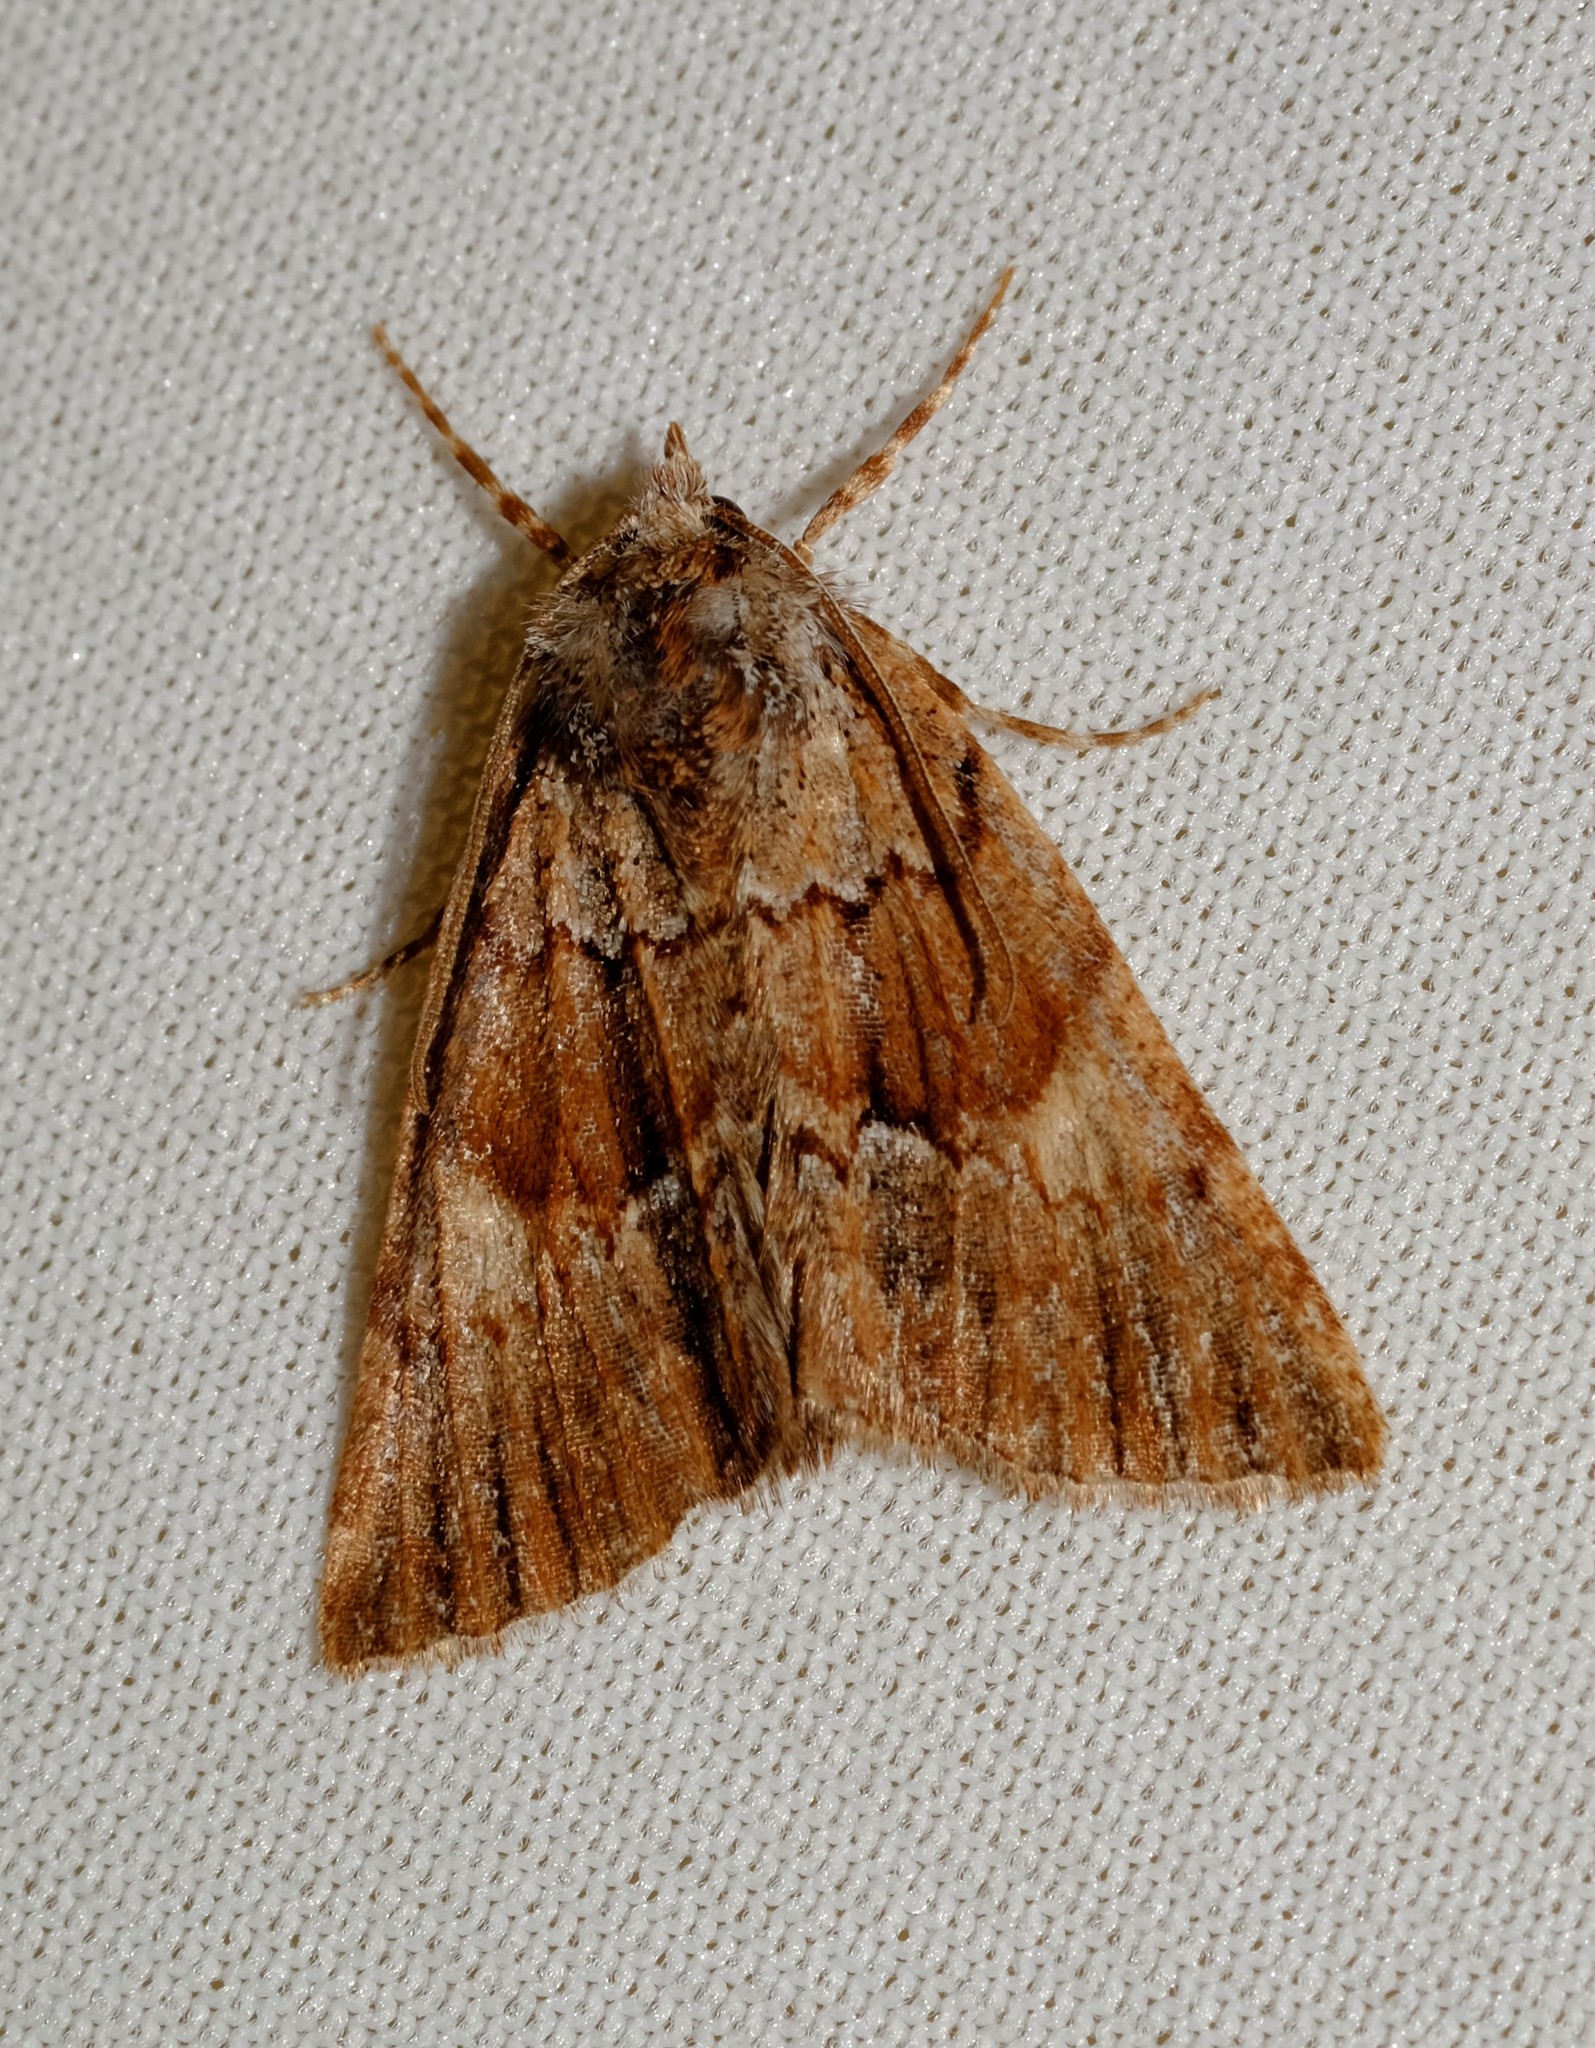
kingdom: Animalia
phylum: Arthropoda
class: Insecta
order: Lepidoptera
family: Geometridae
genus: Smyriodes
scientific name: Smyriodes
